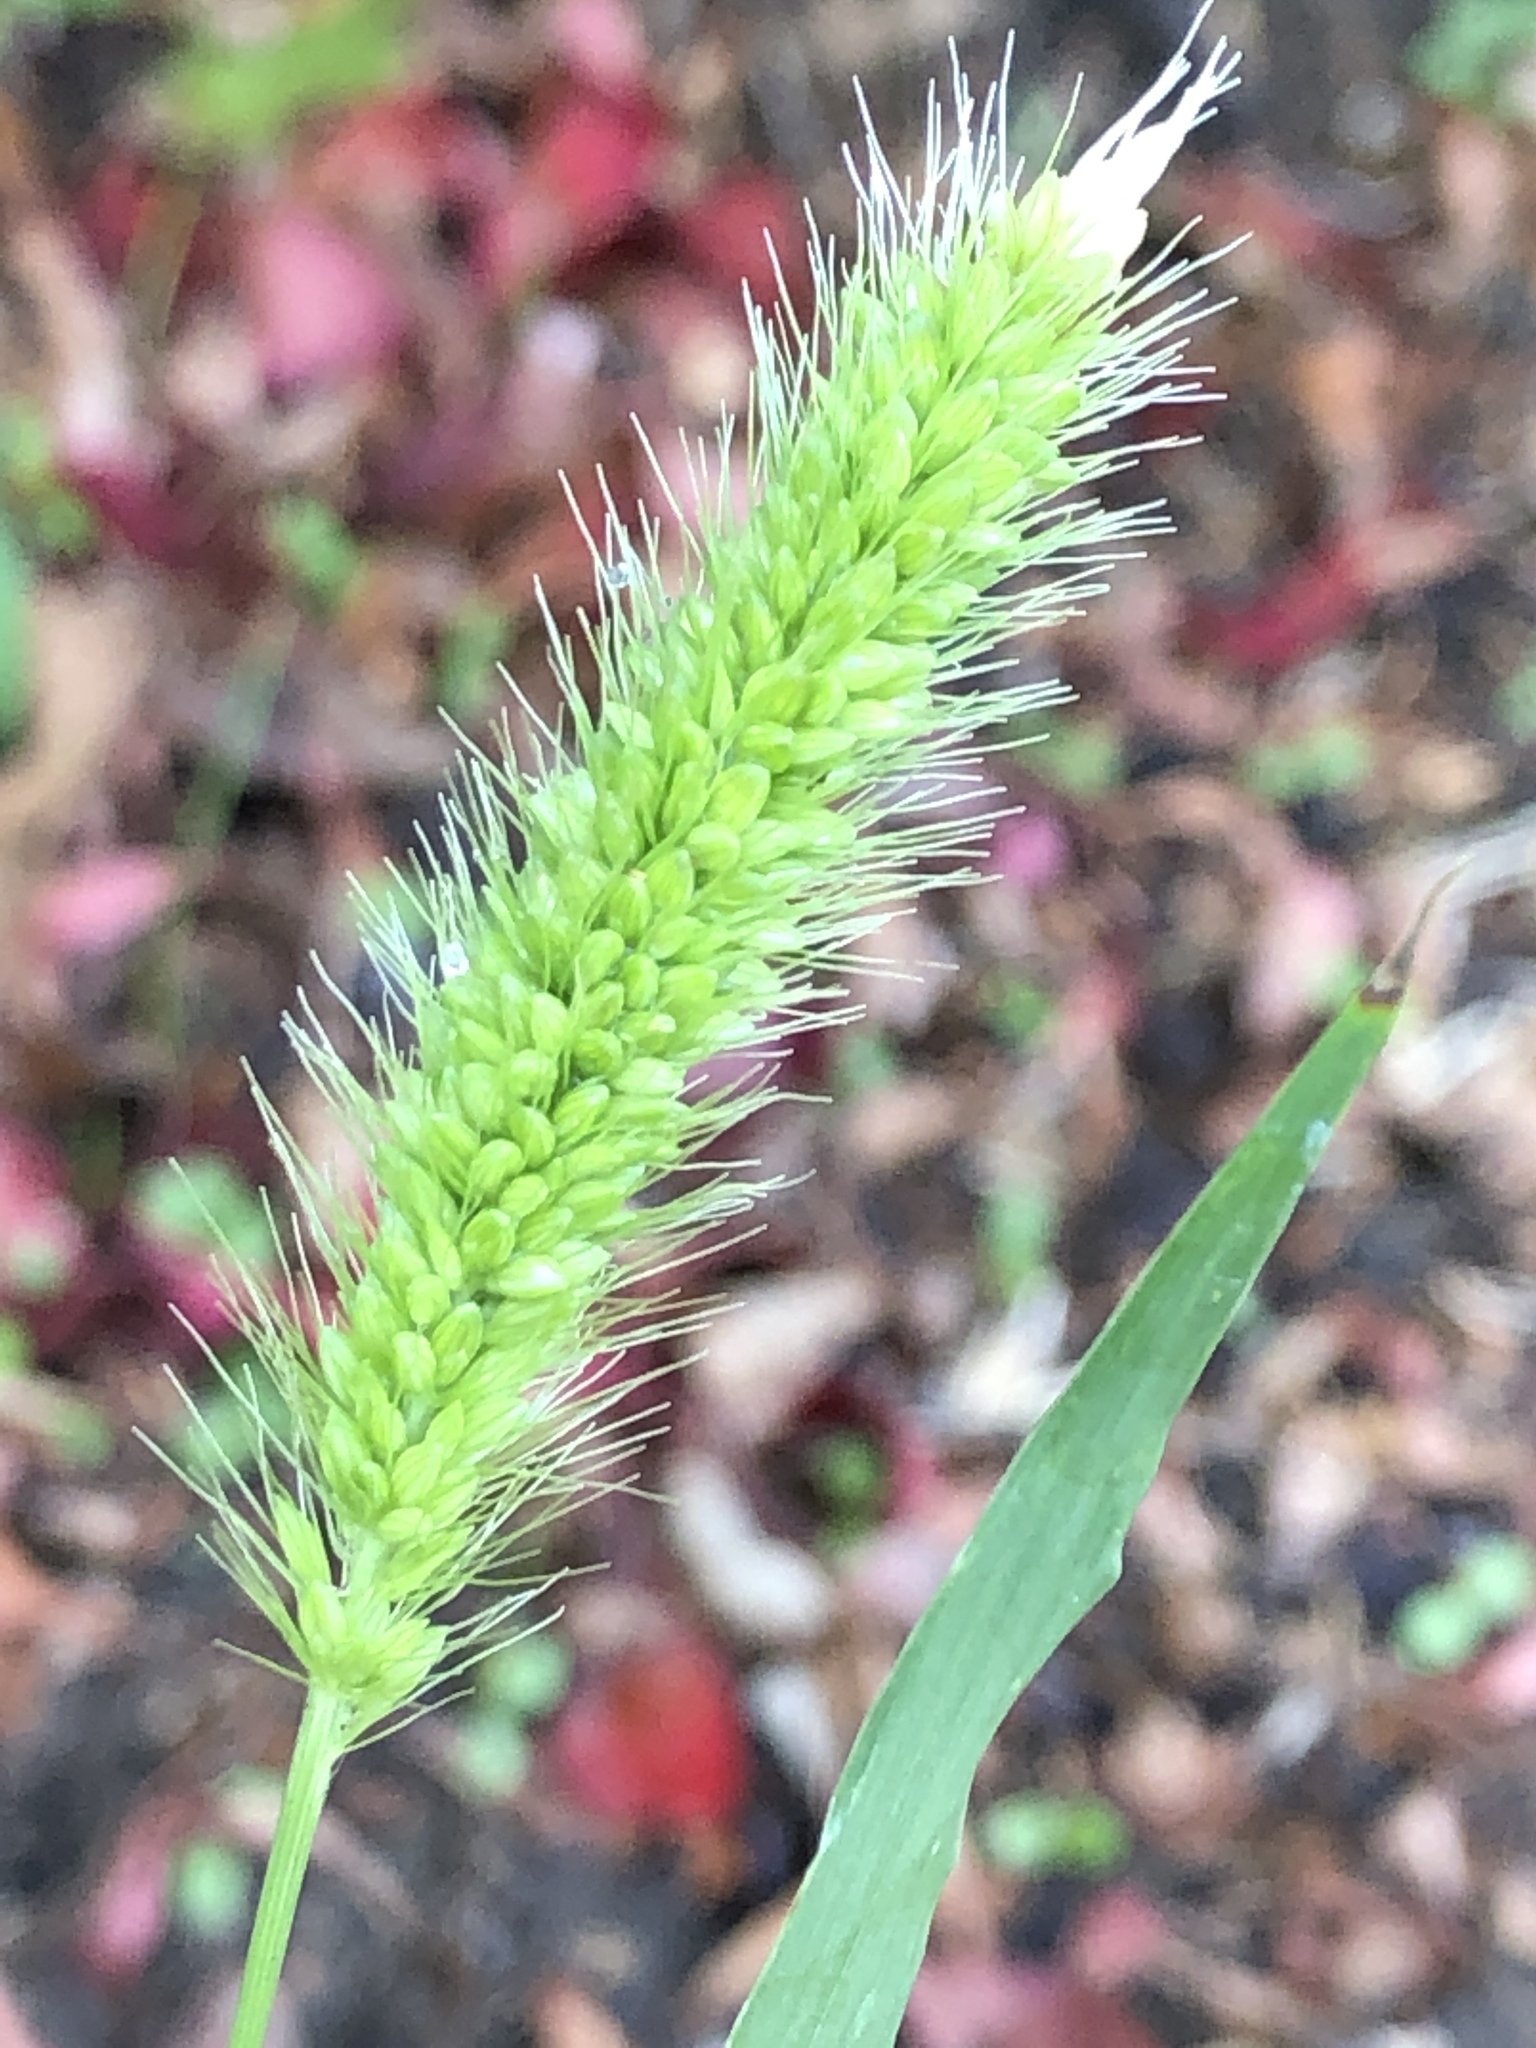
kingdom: Plantae
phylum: Tracheophyta
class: Liliopsida
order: Poales
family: Poaceae
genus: Setaria
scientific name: Setaria viridis
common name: Green bristlegrass
